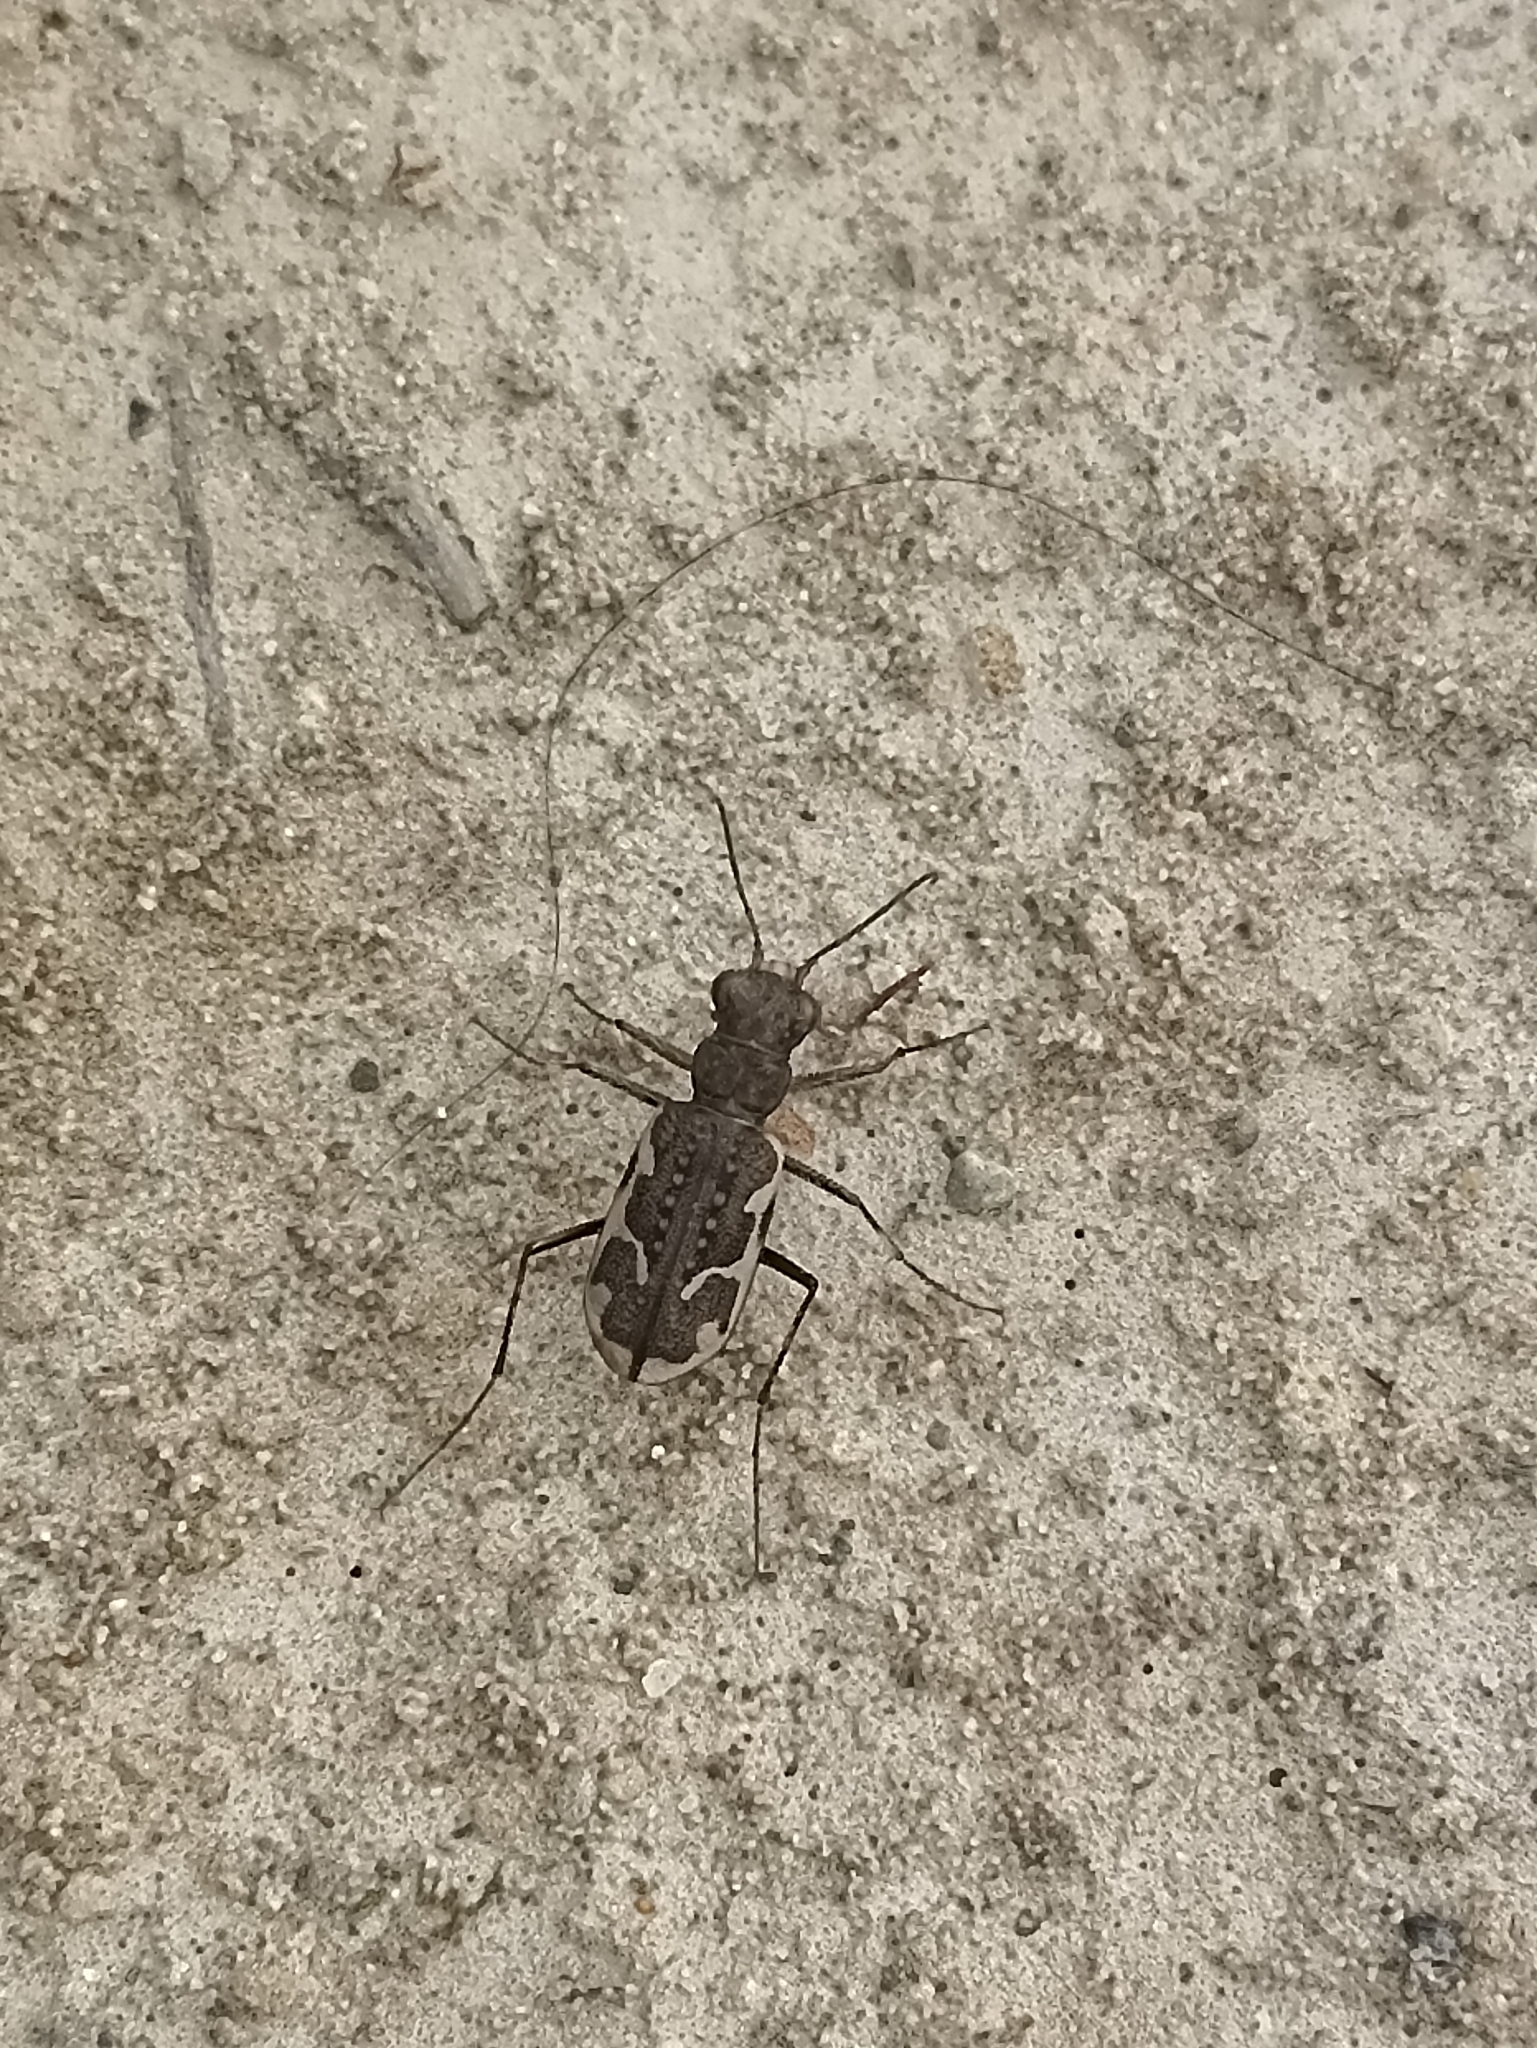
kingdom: Animalia
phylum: Arthropoda
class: Insecta
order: Coleoptera
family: Carabidae
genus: Neocicindela
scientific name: Neocicindela tuberculata
